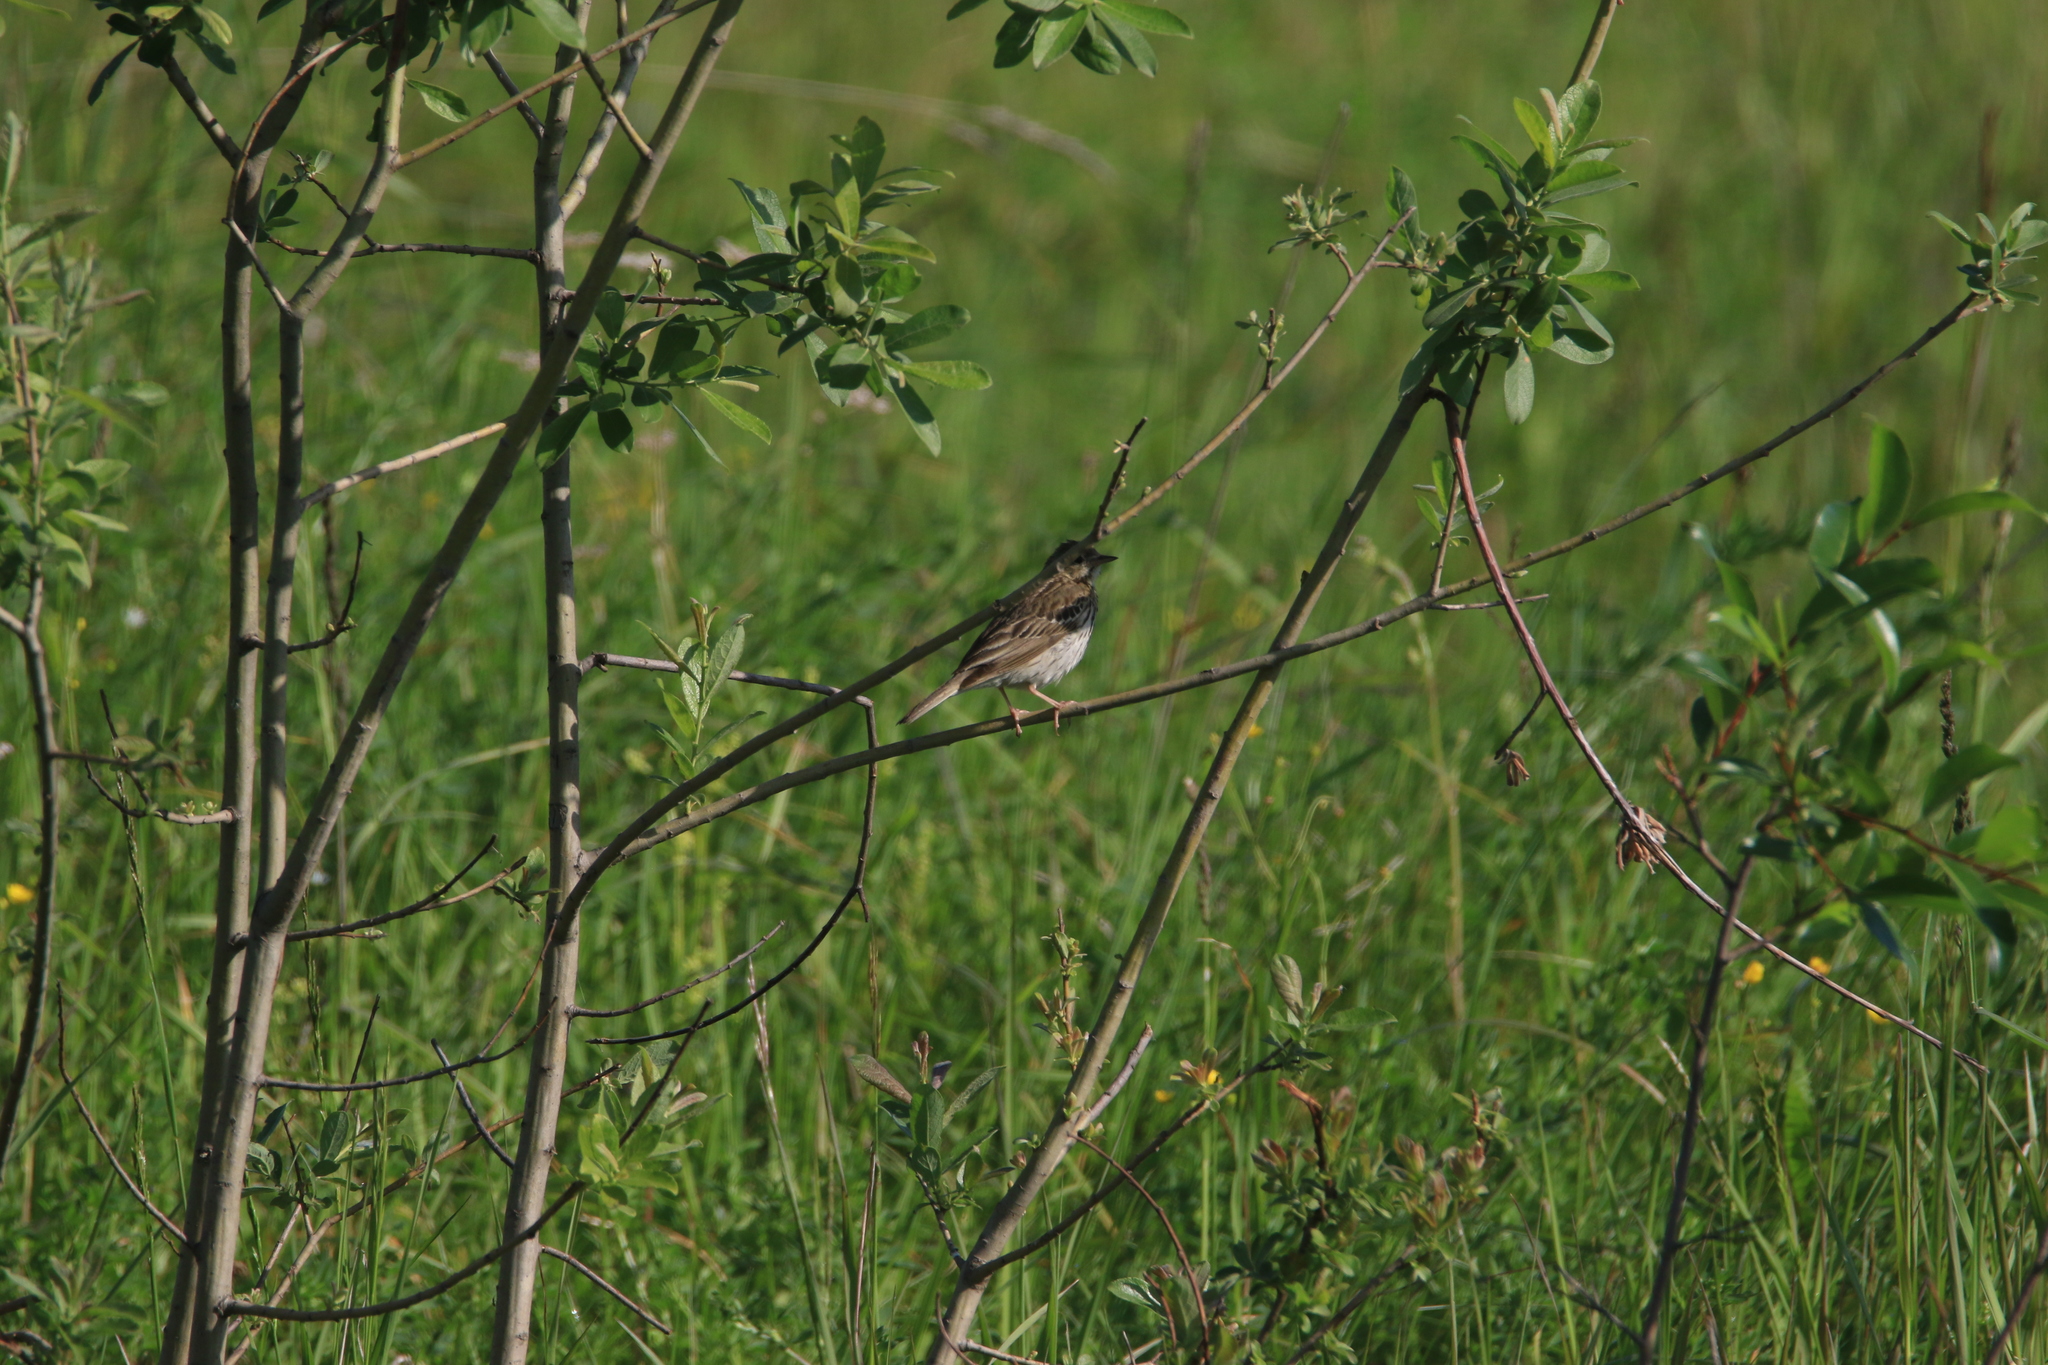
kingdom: Animalia
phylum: Chordata
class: Aves
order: Passeriformes
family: Motacillidae
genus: Anthus
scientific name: Anthus trivialis
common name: Tree pipit
